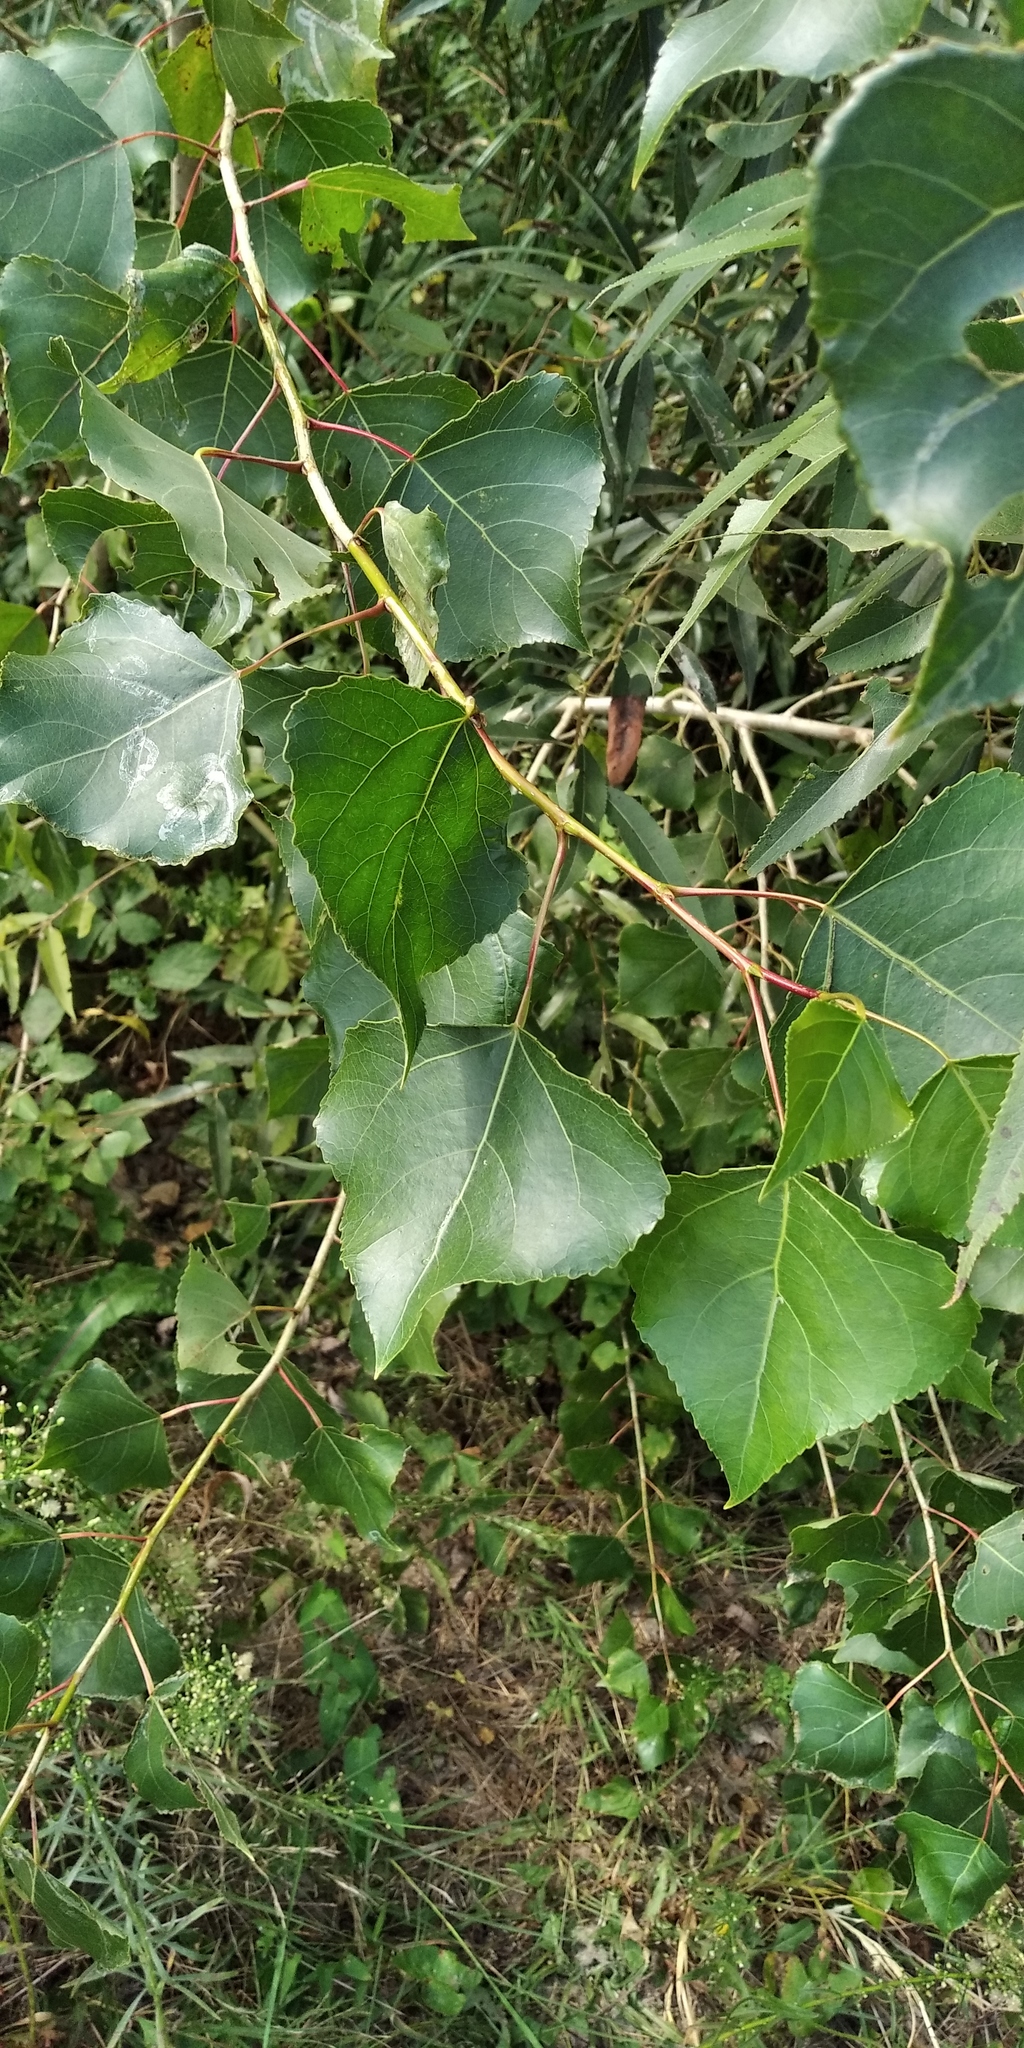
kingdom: Plantae
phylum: Tracheophyta
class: Magnoliopsida
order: Malpighiales
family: Salicaceae
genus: Populus
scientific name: Populus nigra
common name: Black poplar
